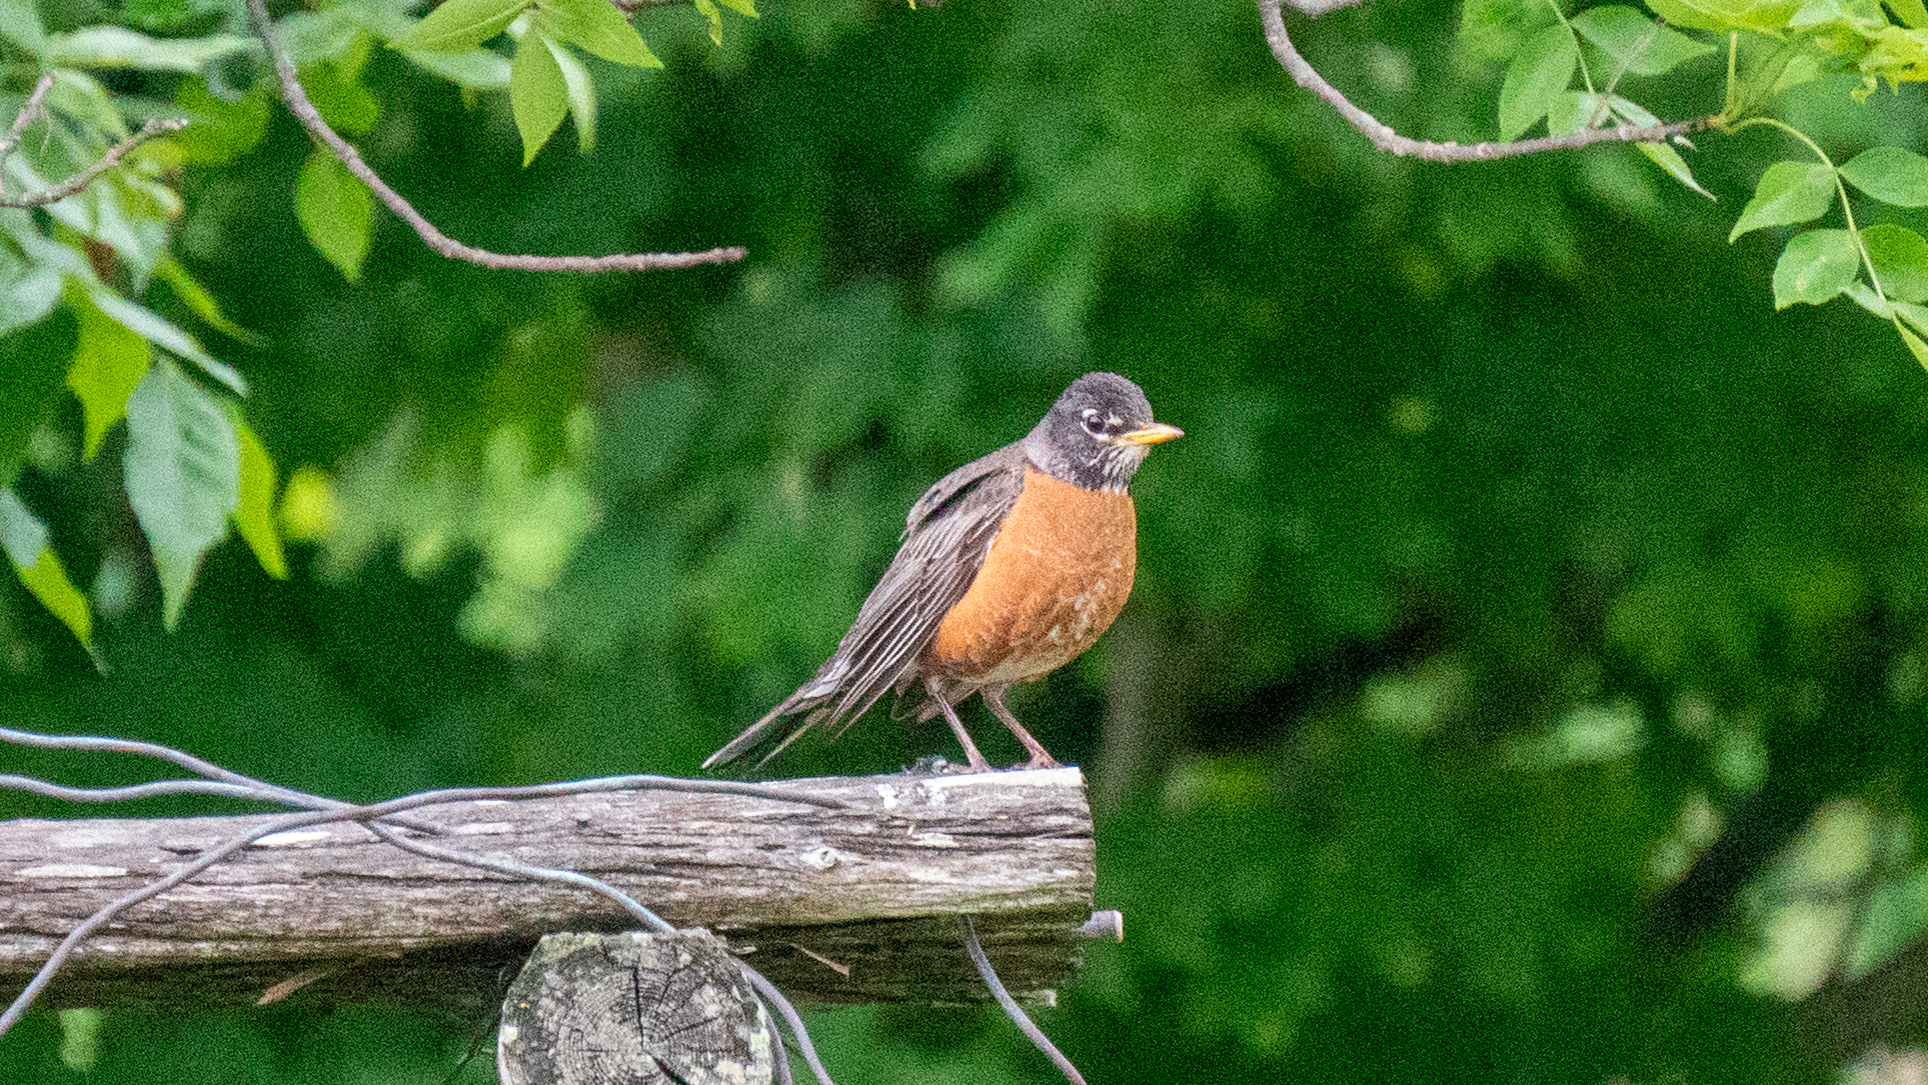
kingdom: Animalia
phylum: Chordata
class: Aves
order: Passeriformes
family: Turdidae
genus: Turdus
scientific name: Turdus migratorius
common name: American robin
